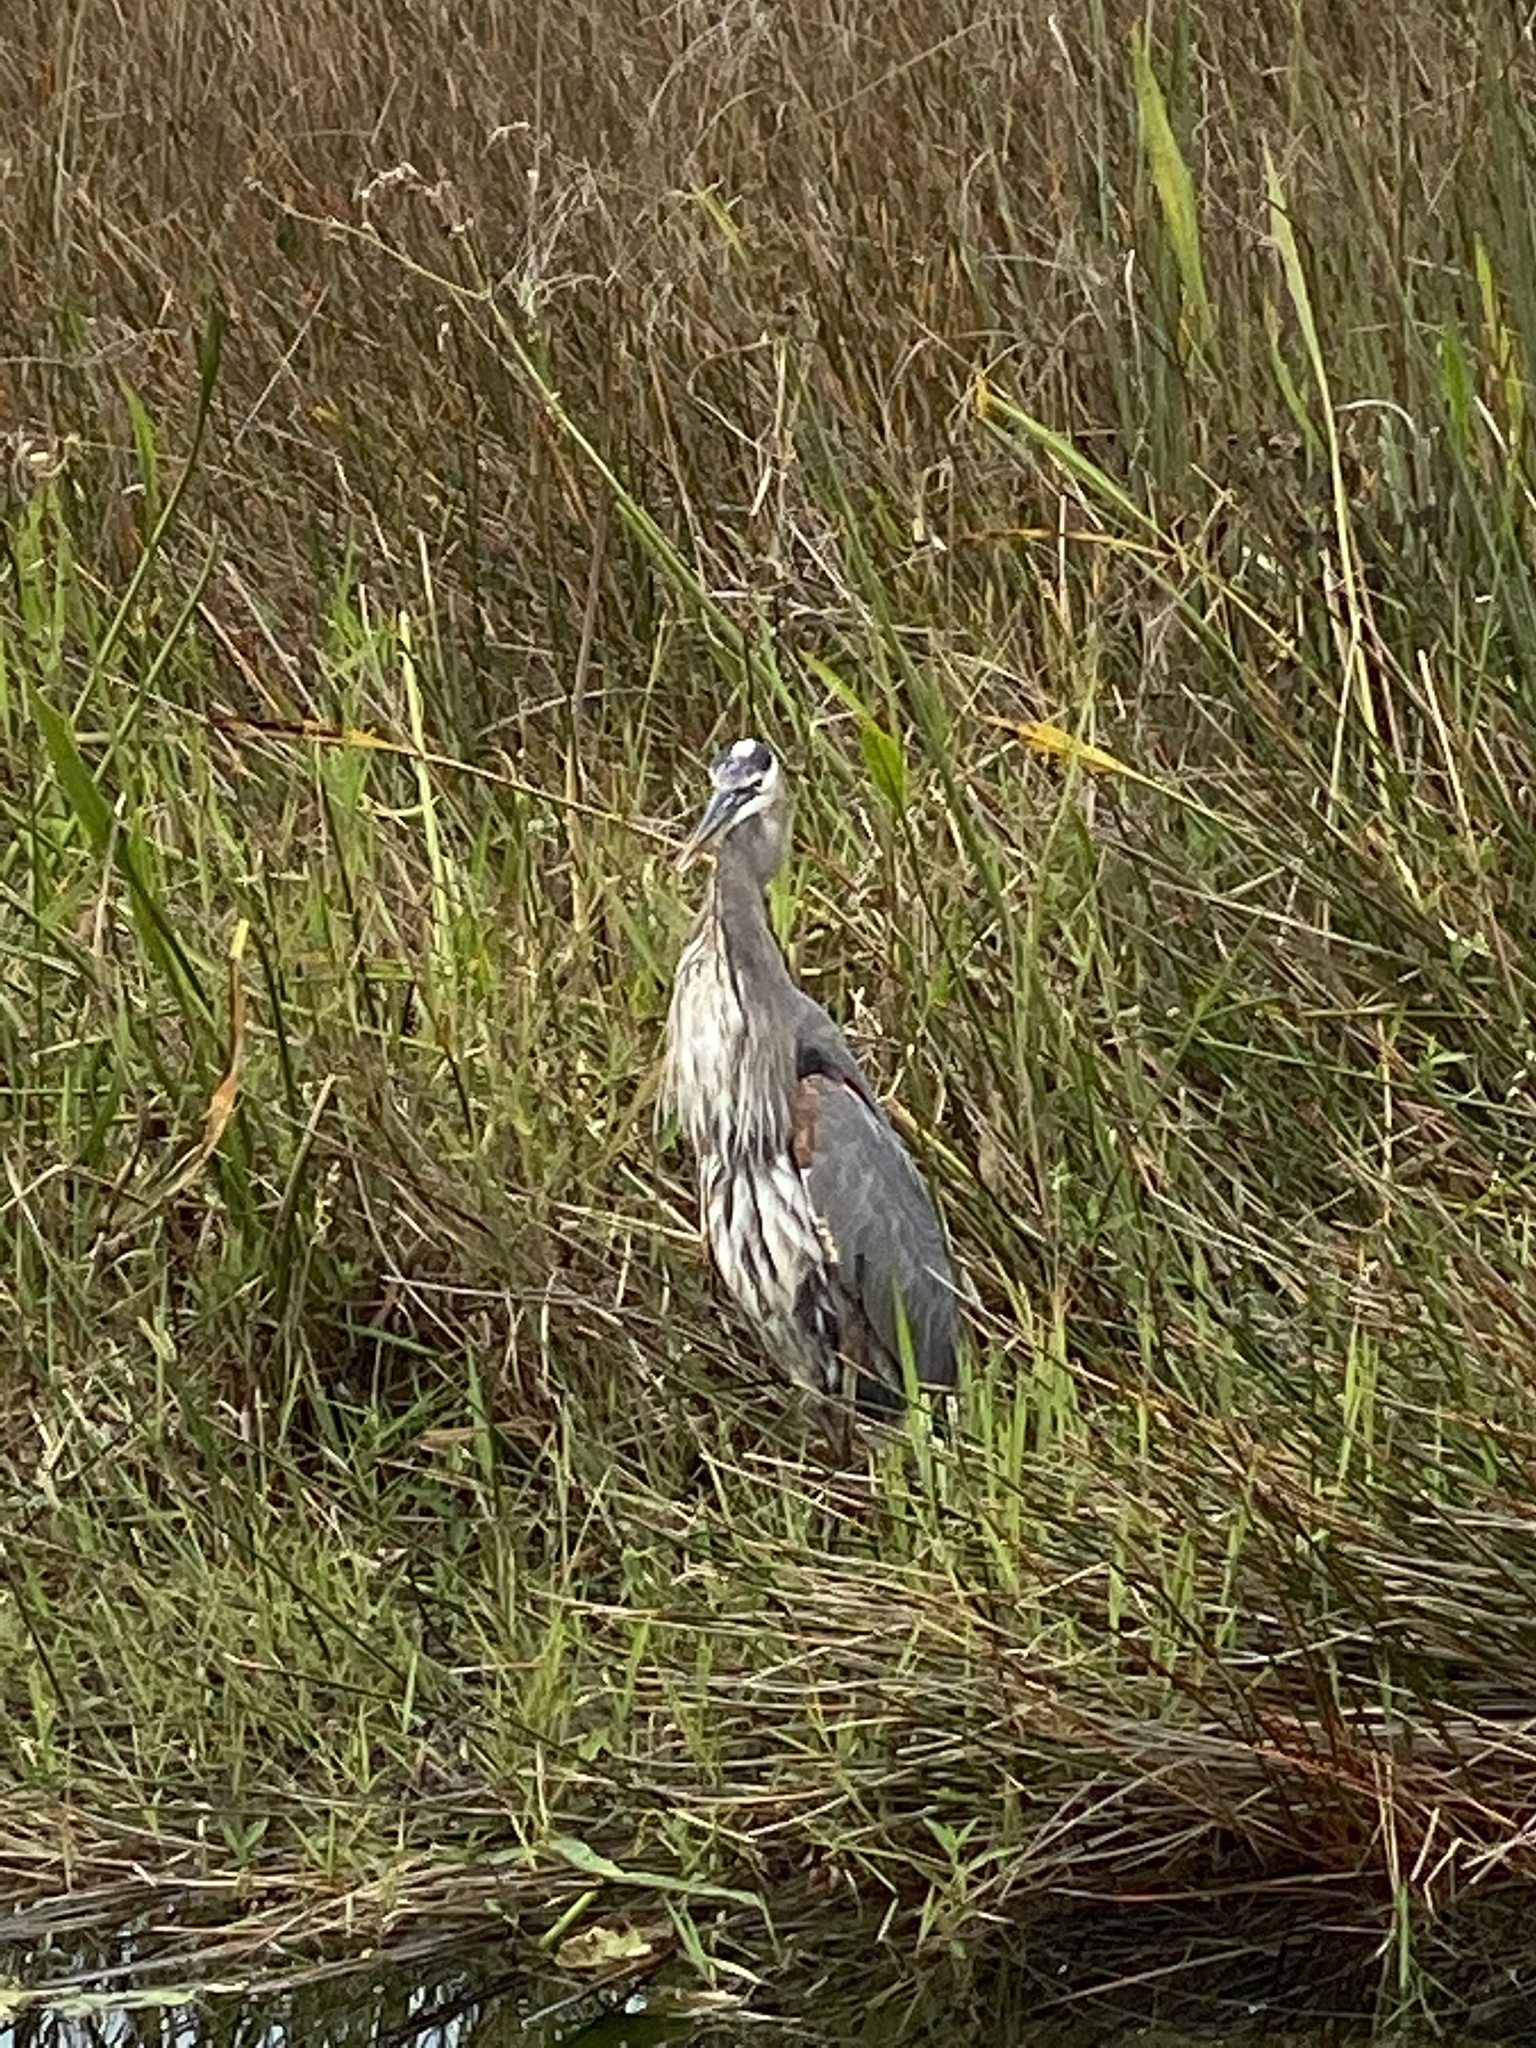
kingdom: Animalia
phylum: Chordata
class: Aves
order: Pelecaniformes
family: Ardeidae
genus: Ardea
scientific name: Ardea herodias
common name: Great blue heron
